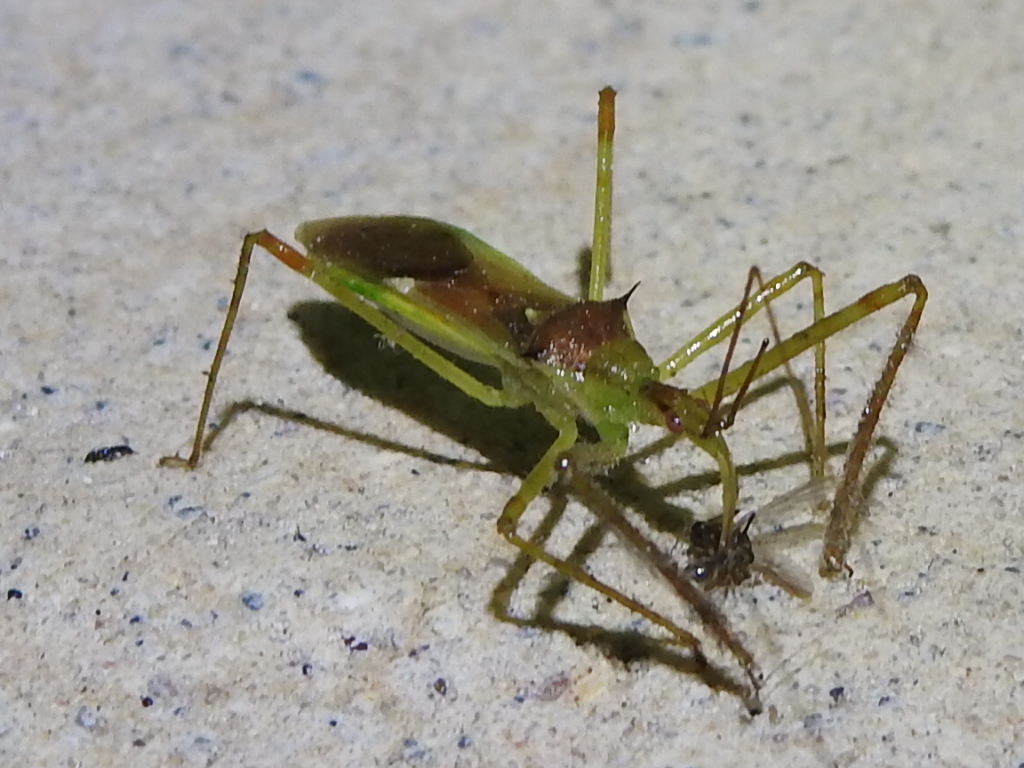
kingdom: Animalia
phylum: Arthropoda
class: Insecta
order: Hemiptera
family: Reduviidae
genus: Zelus
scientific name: Zelus luridus
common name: Pale green assassin bug
